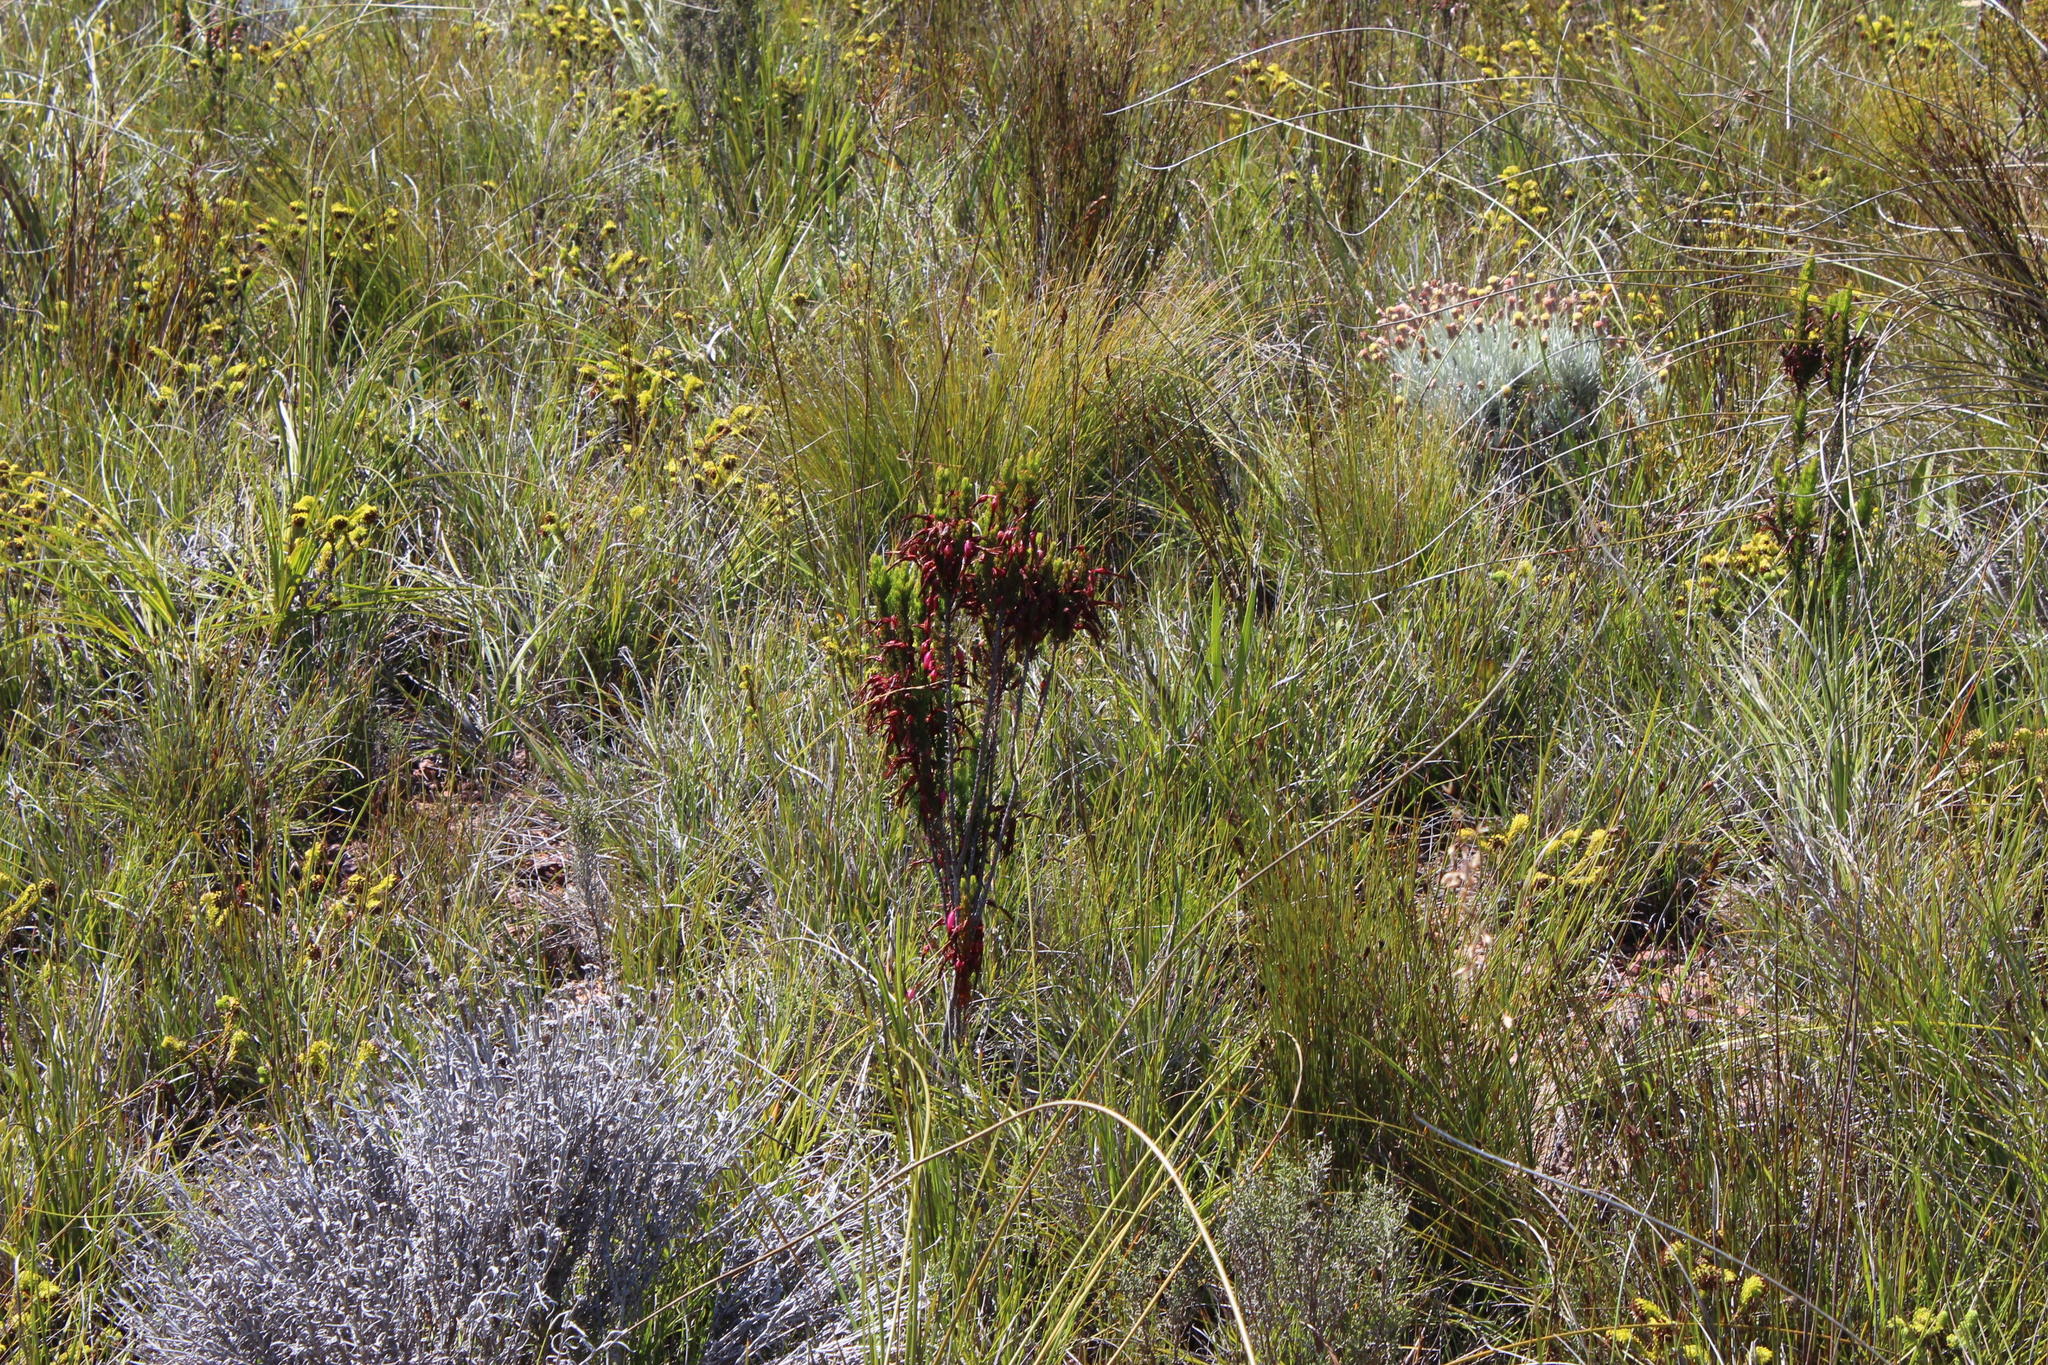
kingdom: Plantae
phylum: Tracheophyta
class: Magnoliopsida
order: Ericales
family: Ericaceae
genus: Erica
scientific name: Erica plukenetii
